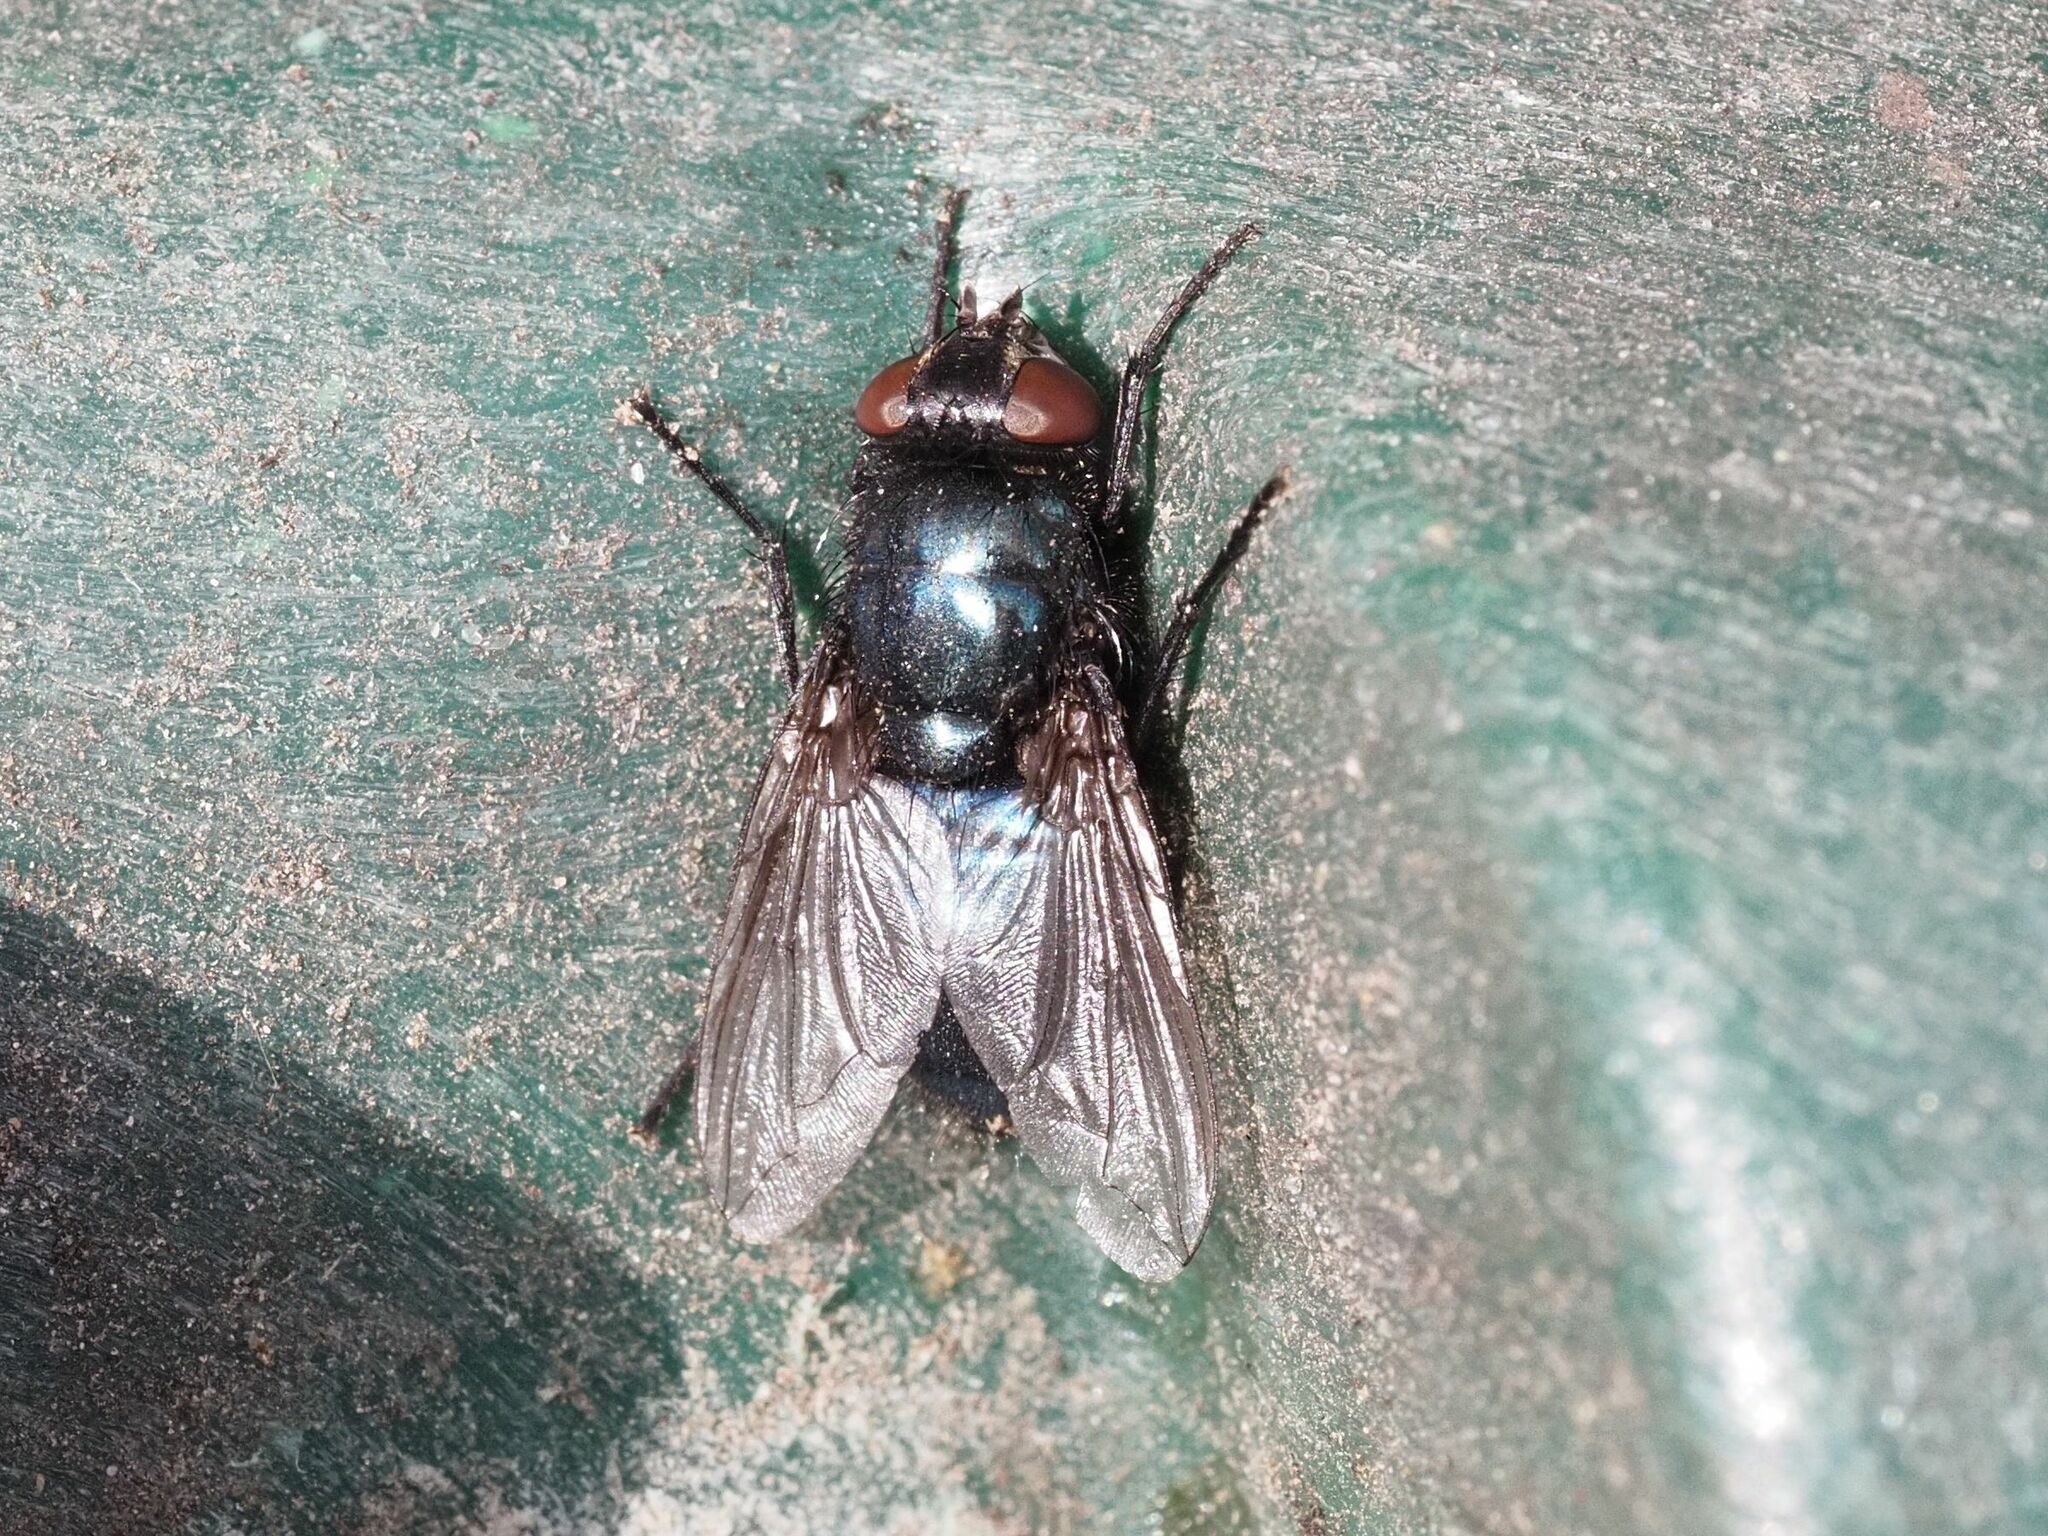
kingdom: Animalia
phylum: Arthropoda
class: Insecta
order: Diptera
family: Calliphoridae
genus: Protophormia
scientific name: Protophormia terraenovae
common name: Blackbottle
